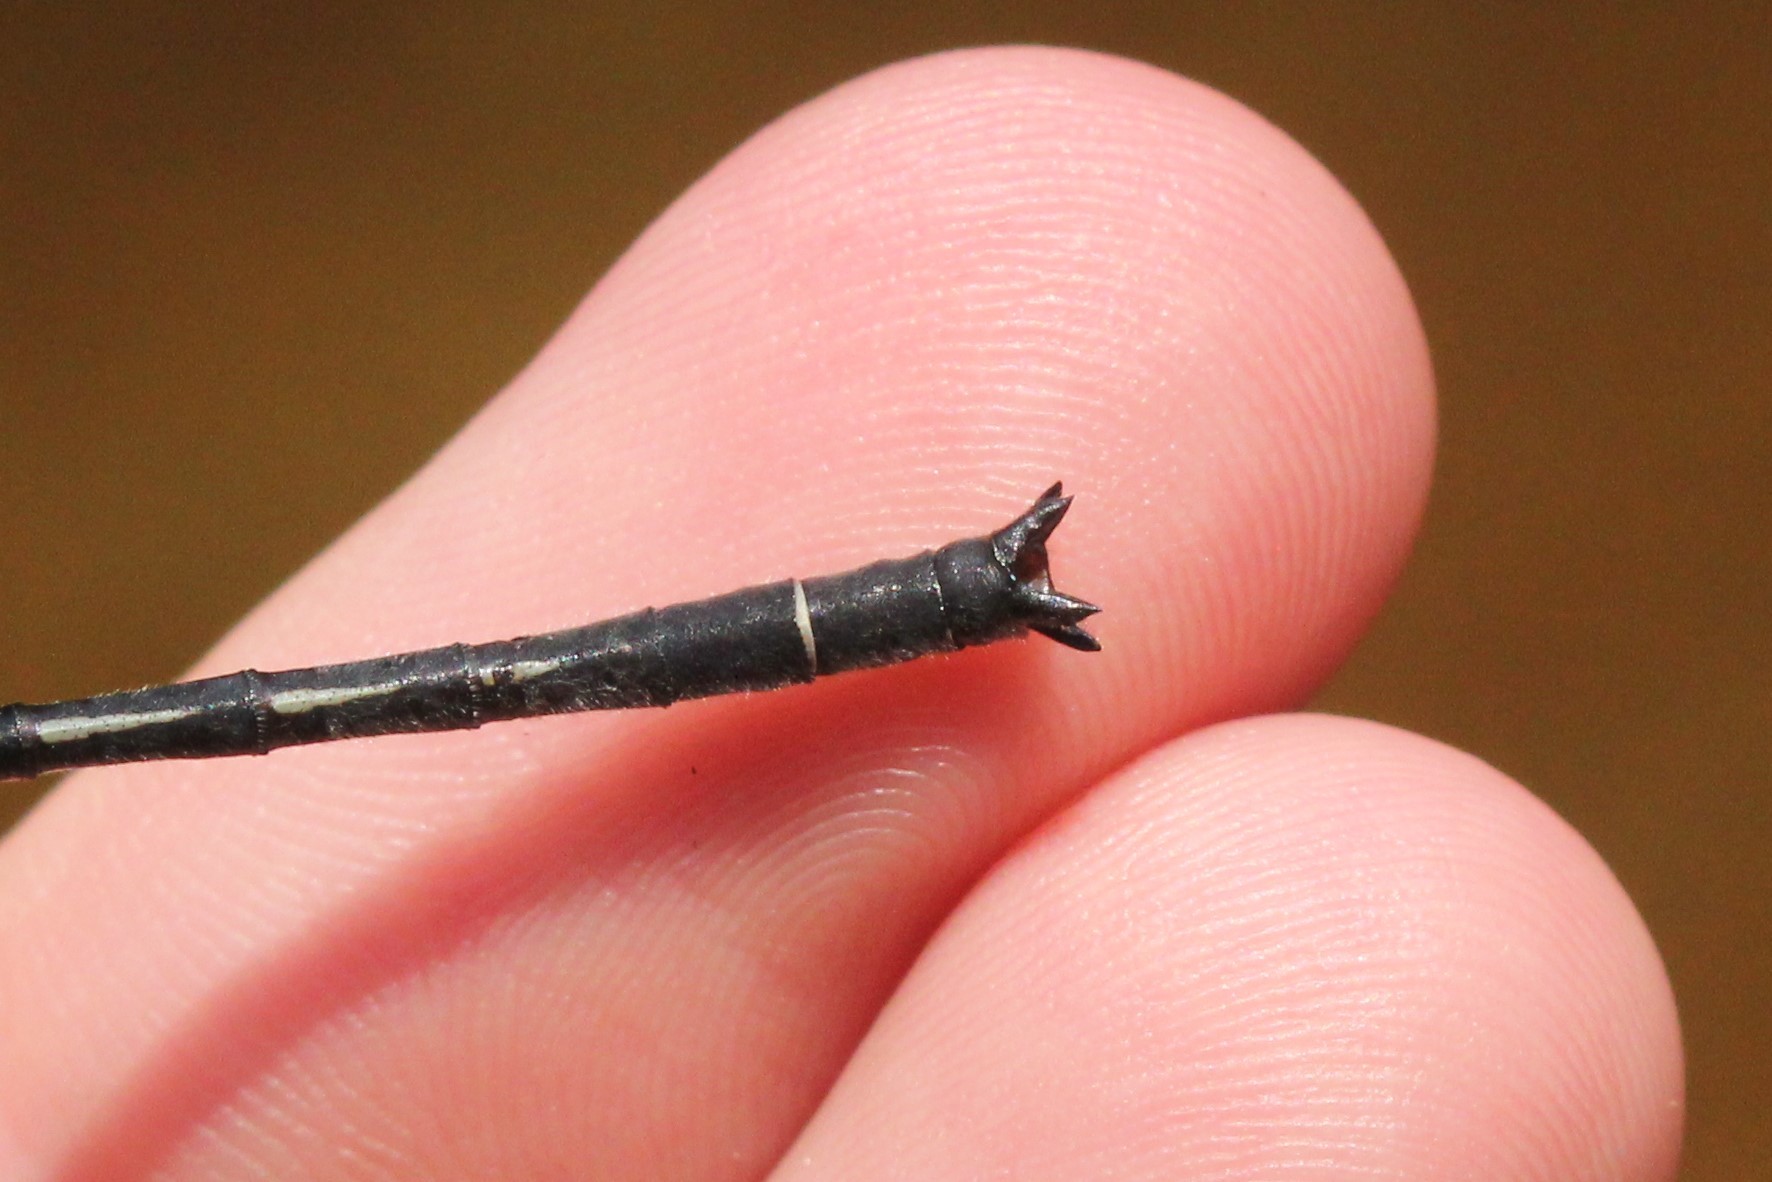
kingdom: Animalia
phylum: Arthropoda
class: Insecta
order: Odonata
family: Gomphidae
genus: Phanogomphus
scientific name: Phanogomphus descriptus
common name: Harpoon clubtail
